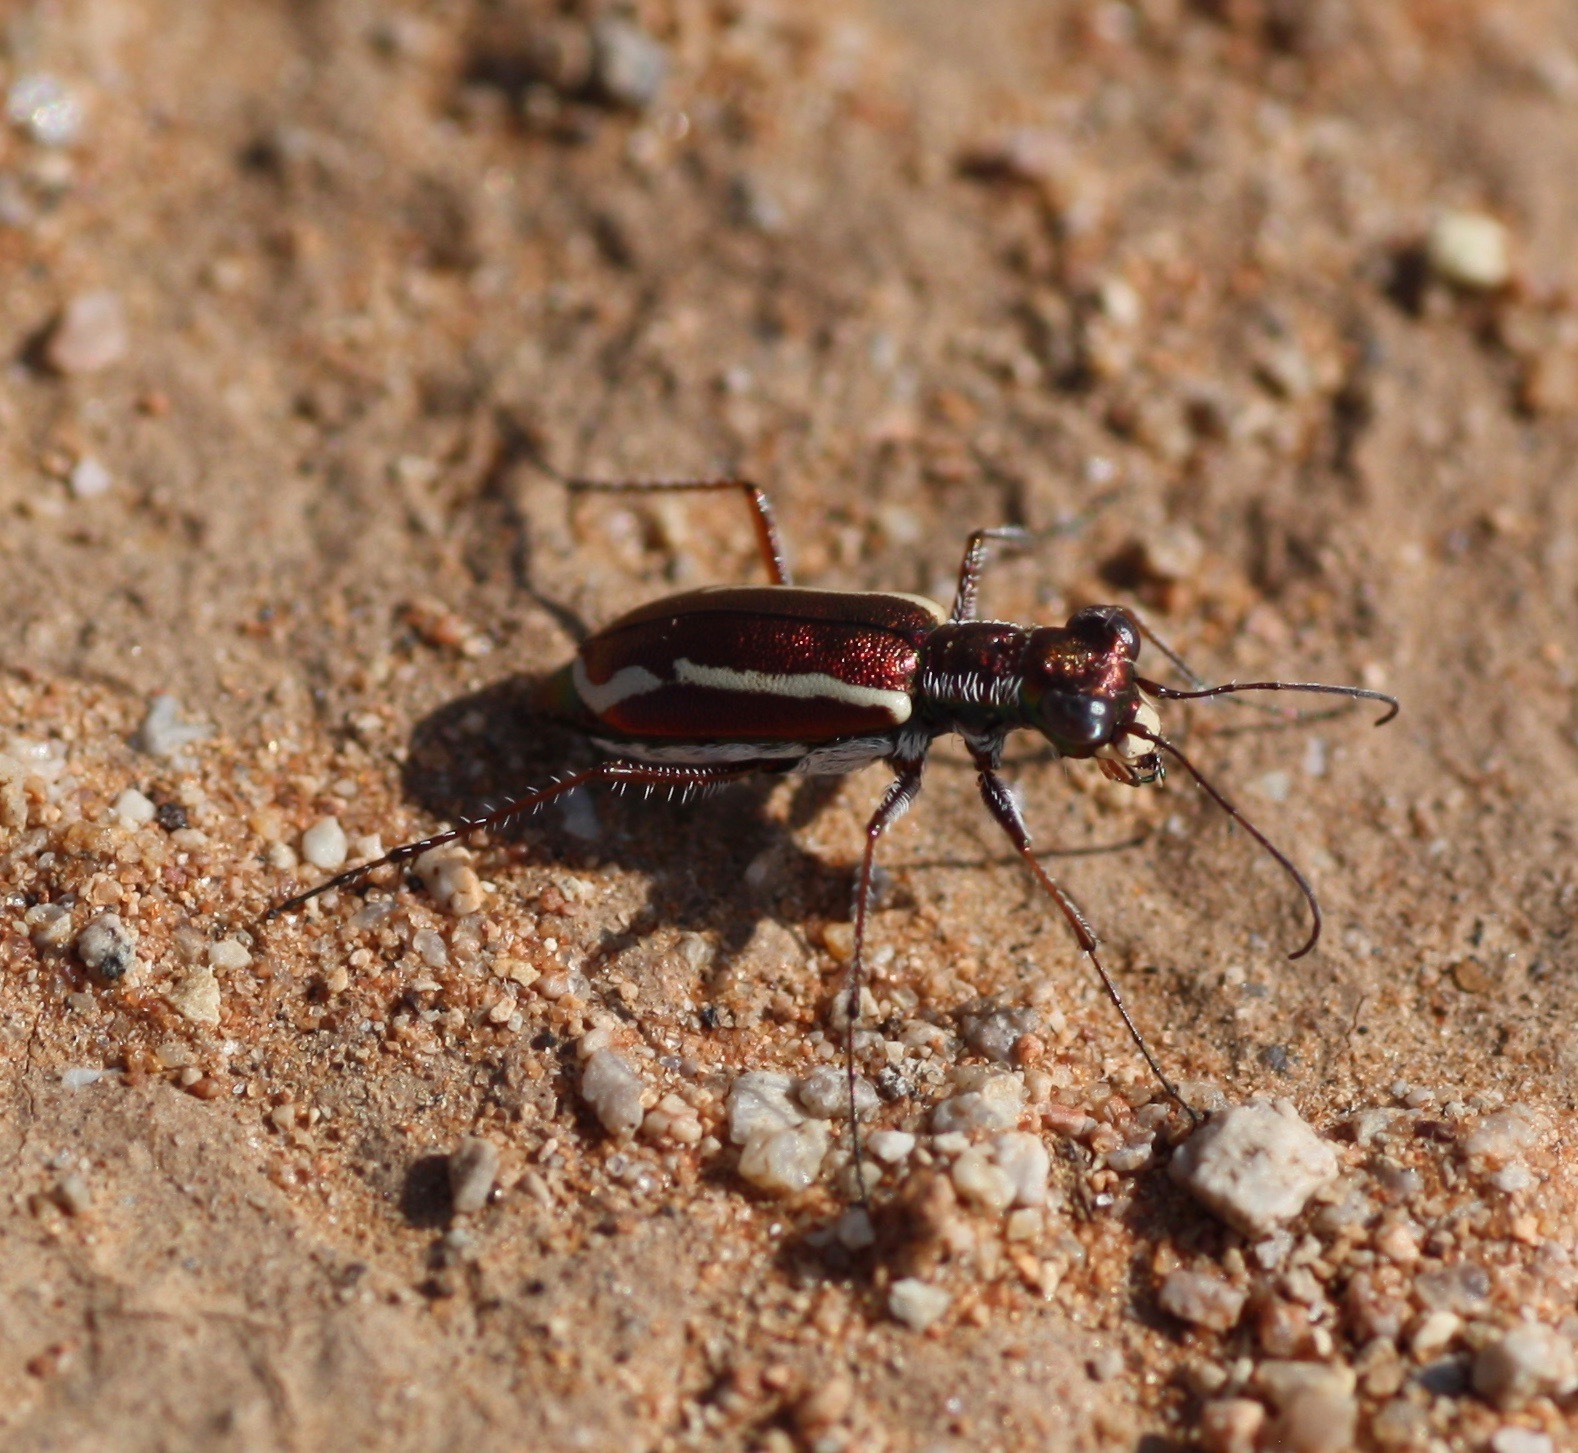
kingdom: Animalia
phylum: Arthropoda
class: Insecta
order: Coleoptera
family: Carabidae
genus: Cylindera
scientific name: Cylindera lemniscata
